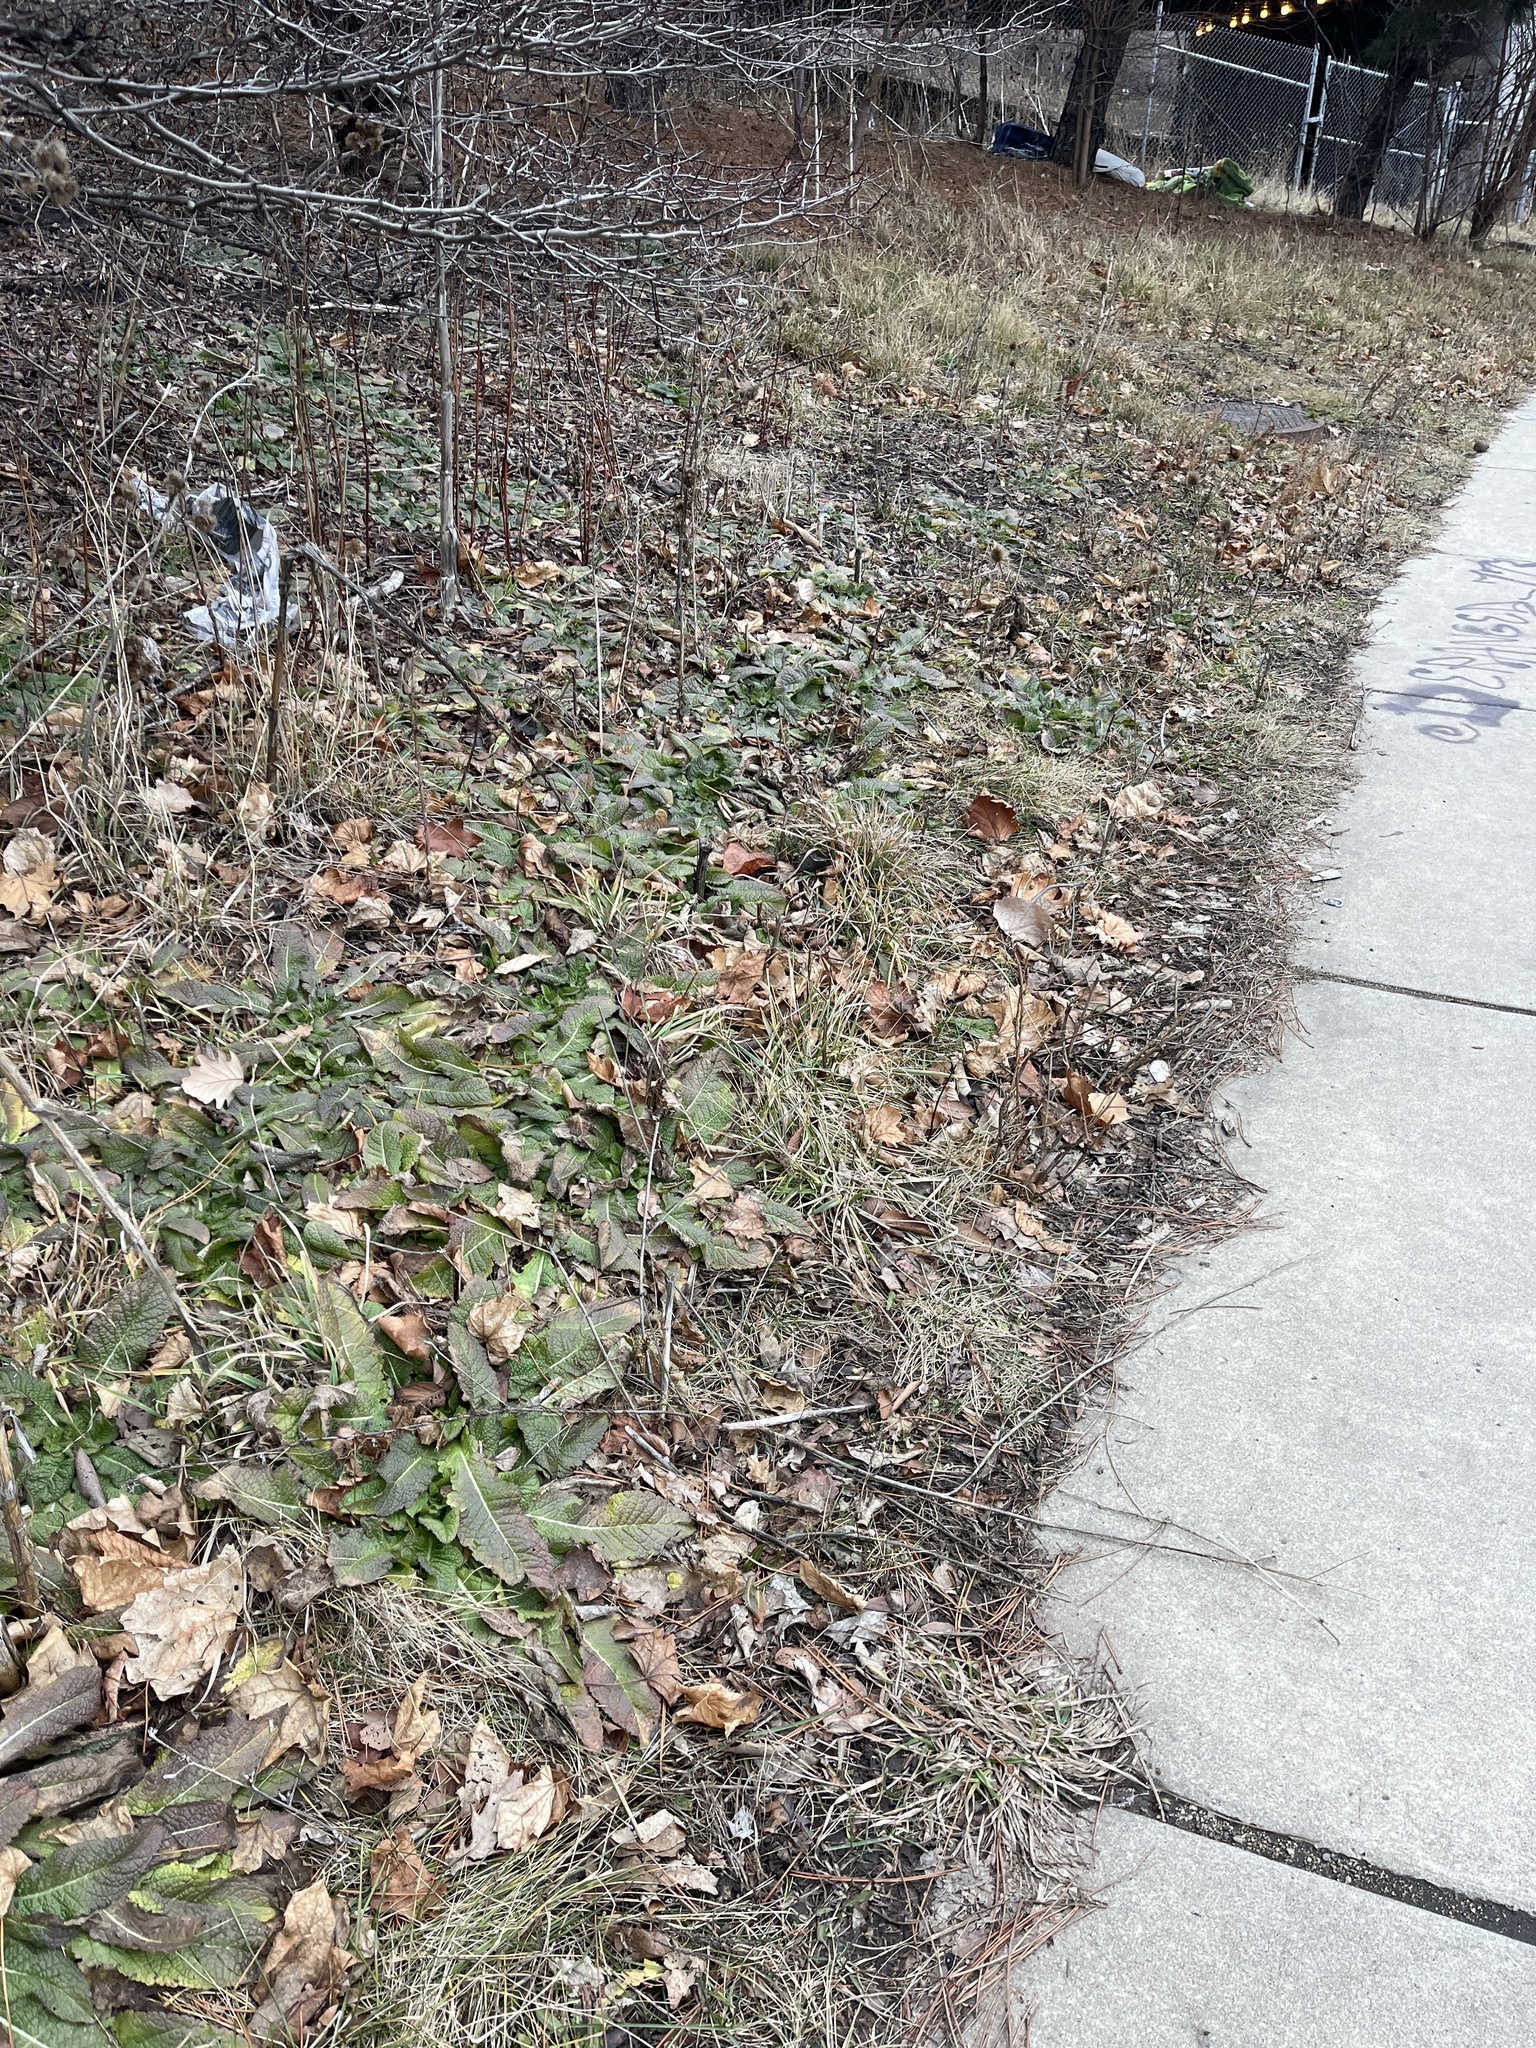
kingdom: Plantae
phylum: Tracheophyta
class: Magnoliopsida
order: Dipsacales
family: Caprifoliaceae
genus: Dipsacus
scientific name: Dipsacus laciniatus
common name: Cut-leaved teasel
